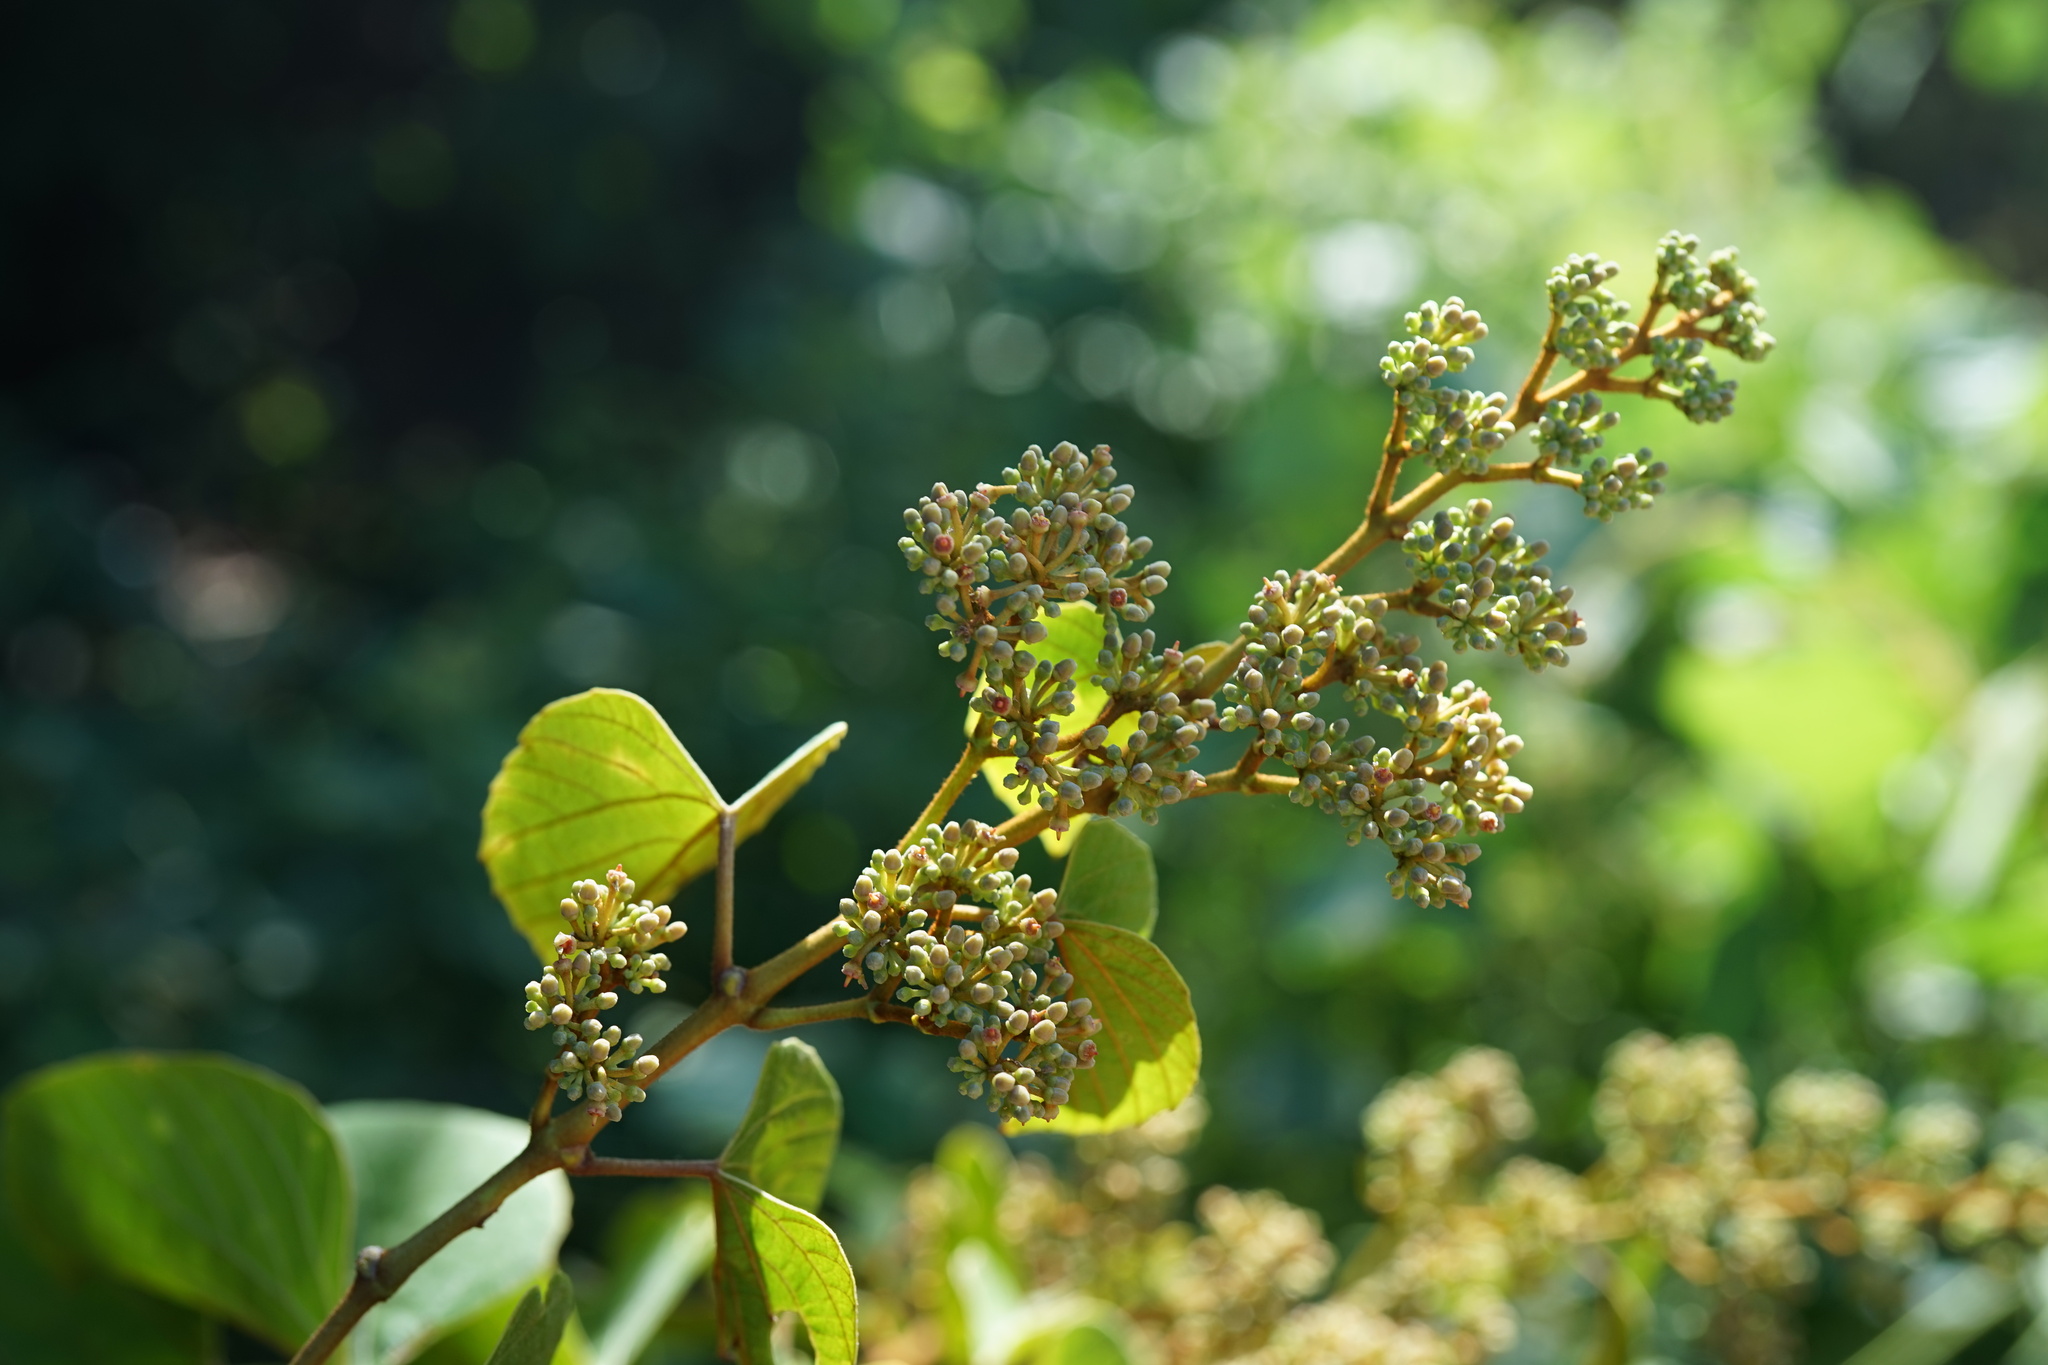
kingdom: Plantae
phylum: Tracheophyta
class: Magnoliopsida
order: Vitales
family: Vitaceae
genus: Cissus
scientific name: Cissus rhodotricha
